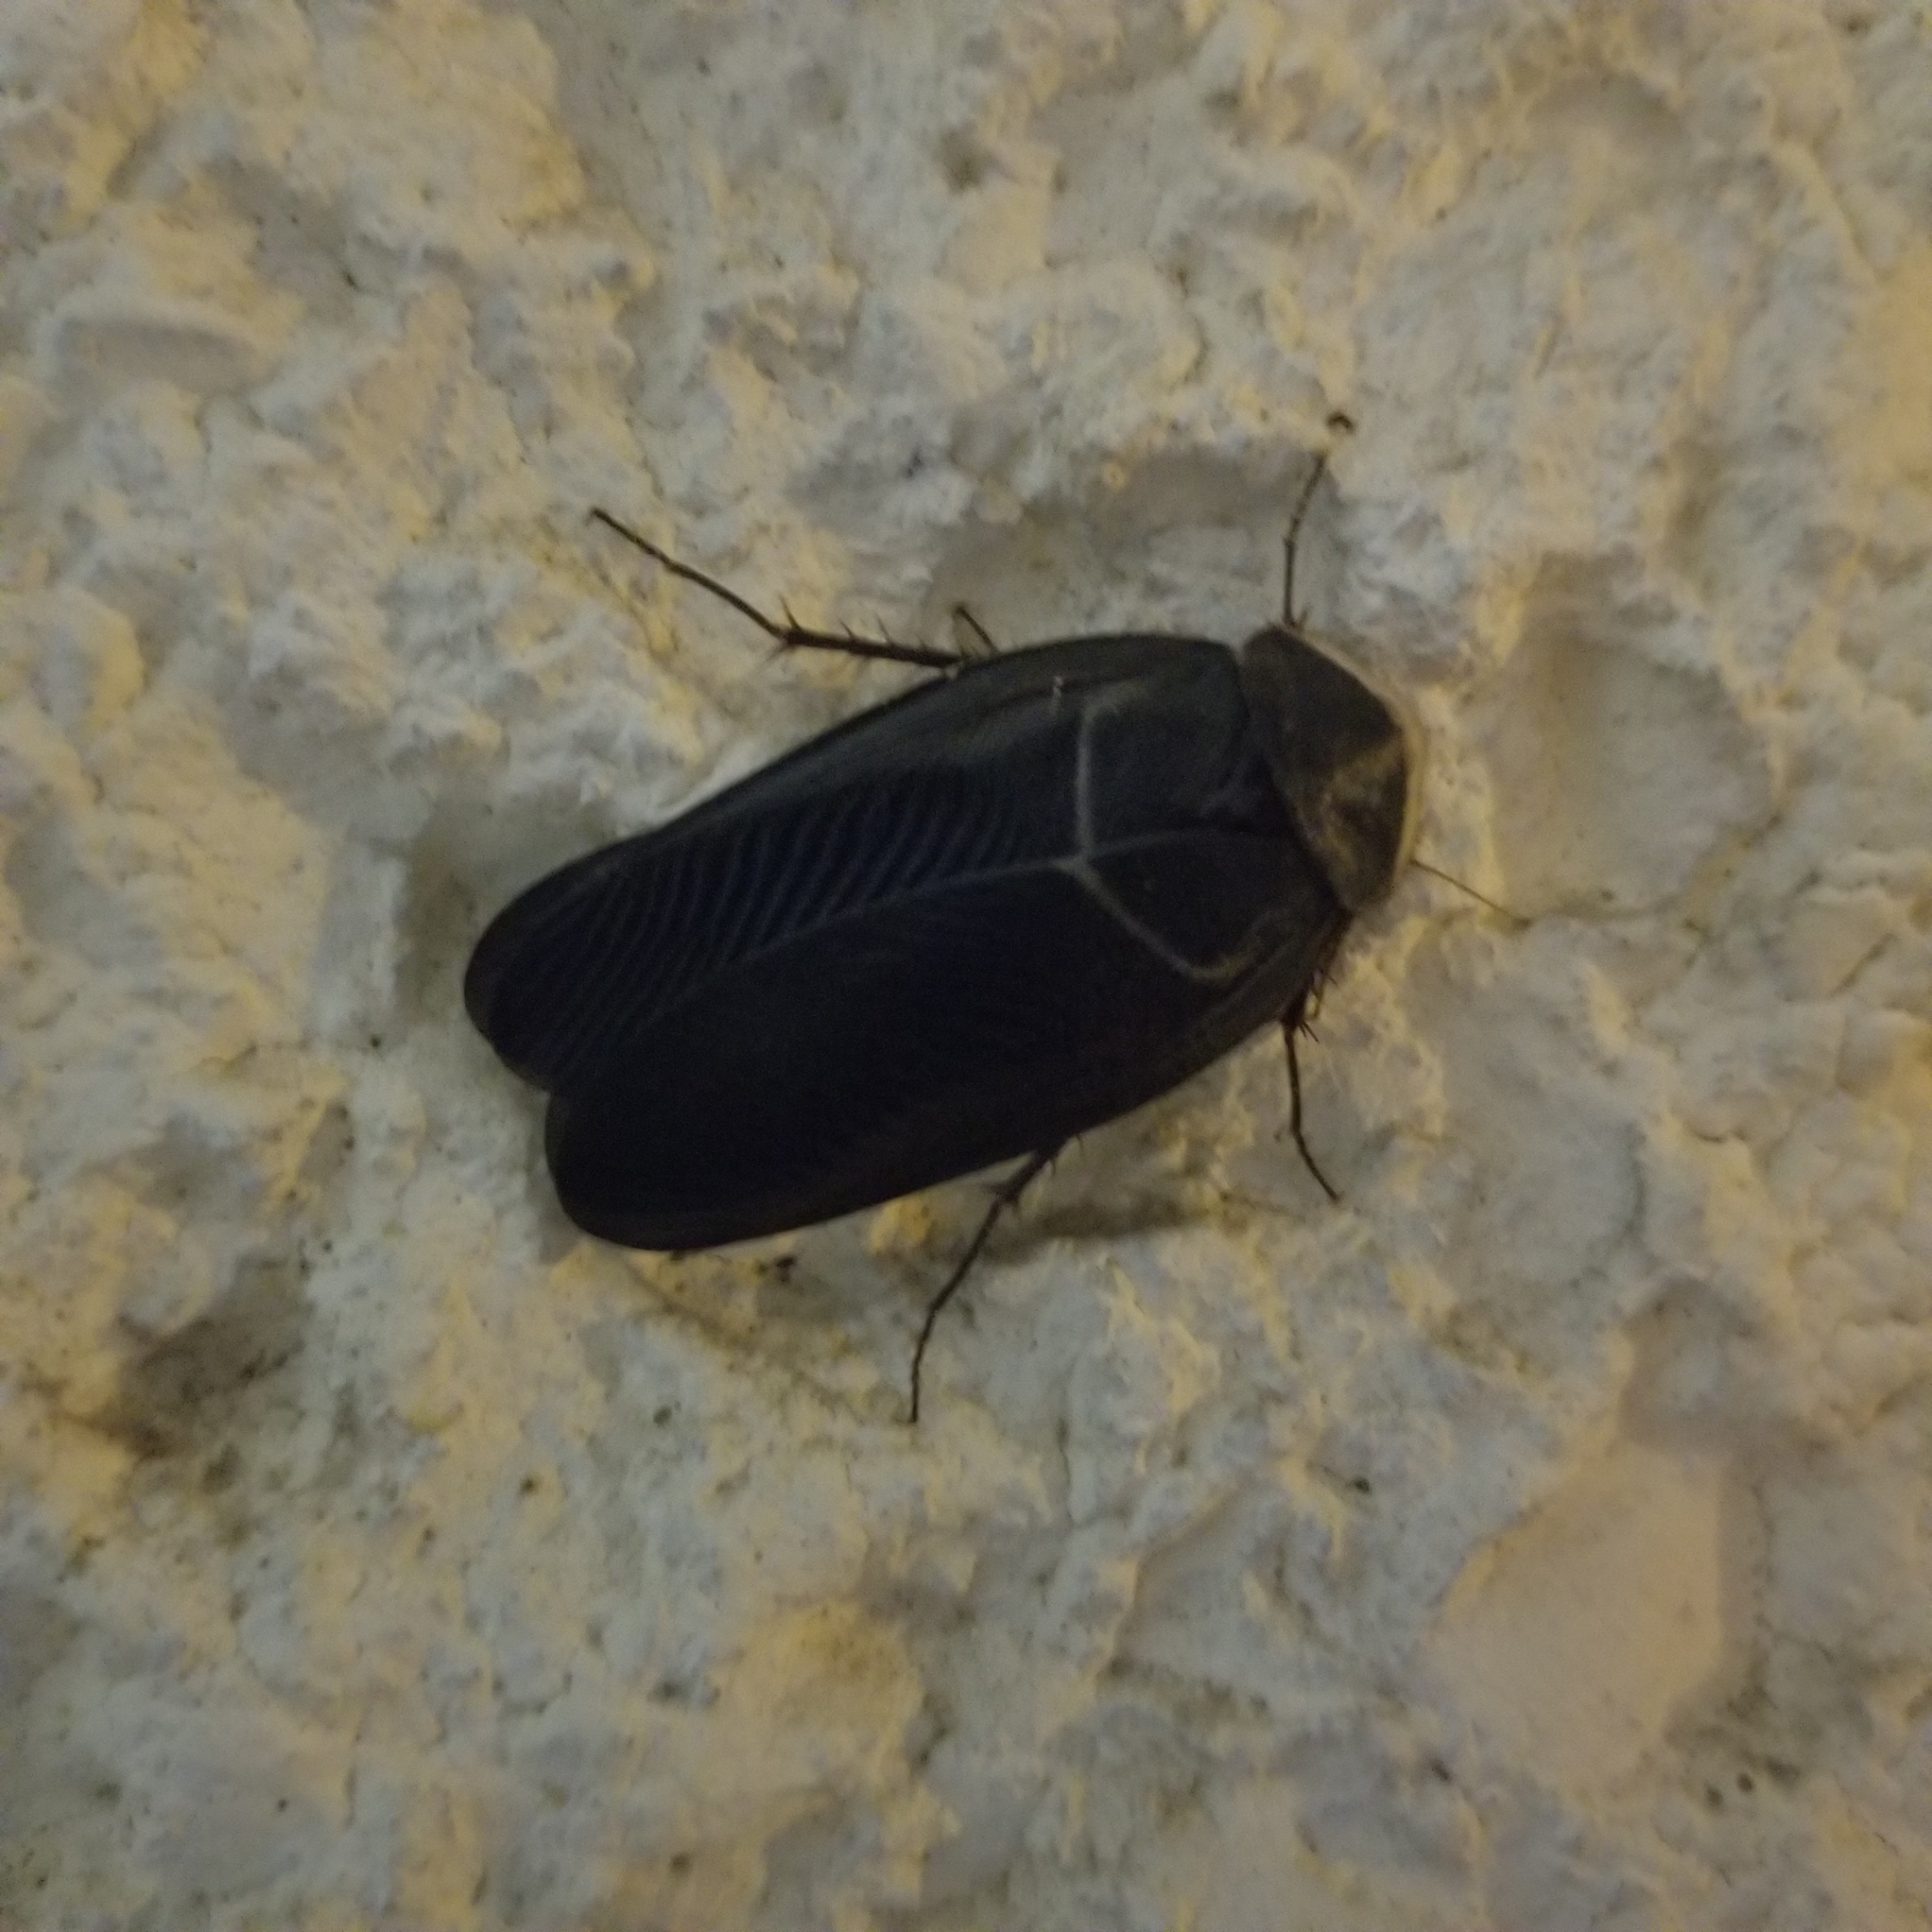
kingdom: Animalia
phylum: Arthropoda
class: Insecta
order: Blattodea
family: Corydiidae
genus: Polyphaga
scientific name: Polyphaga aegyptiaca
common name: Egyptian cockroach
